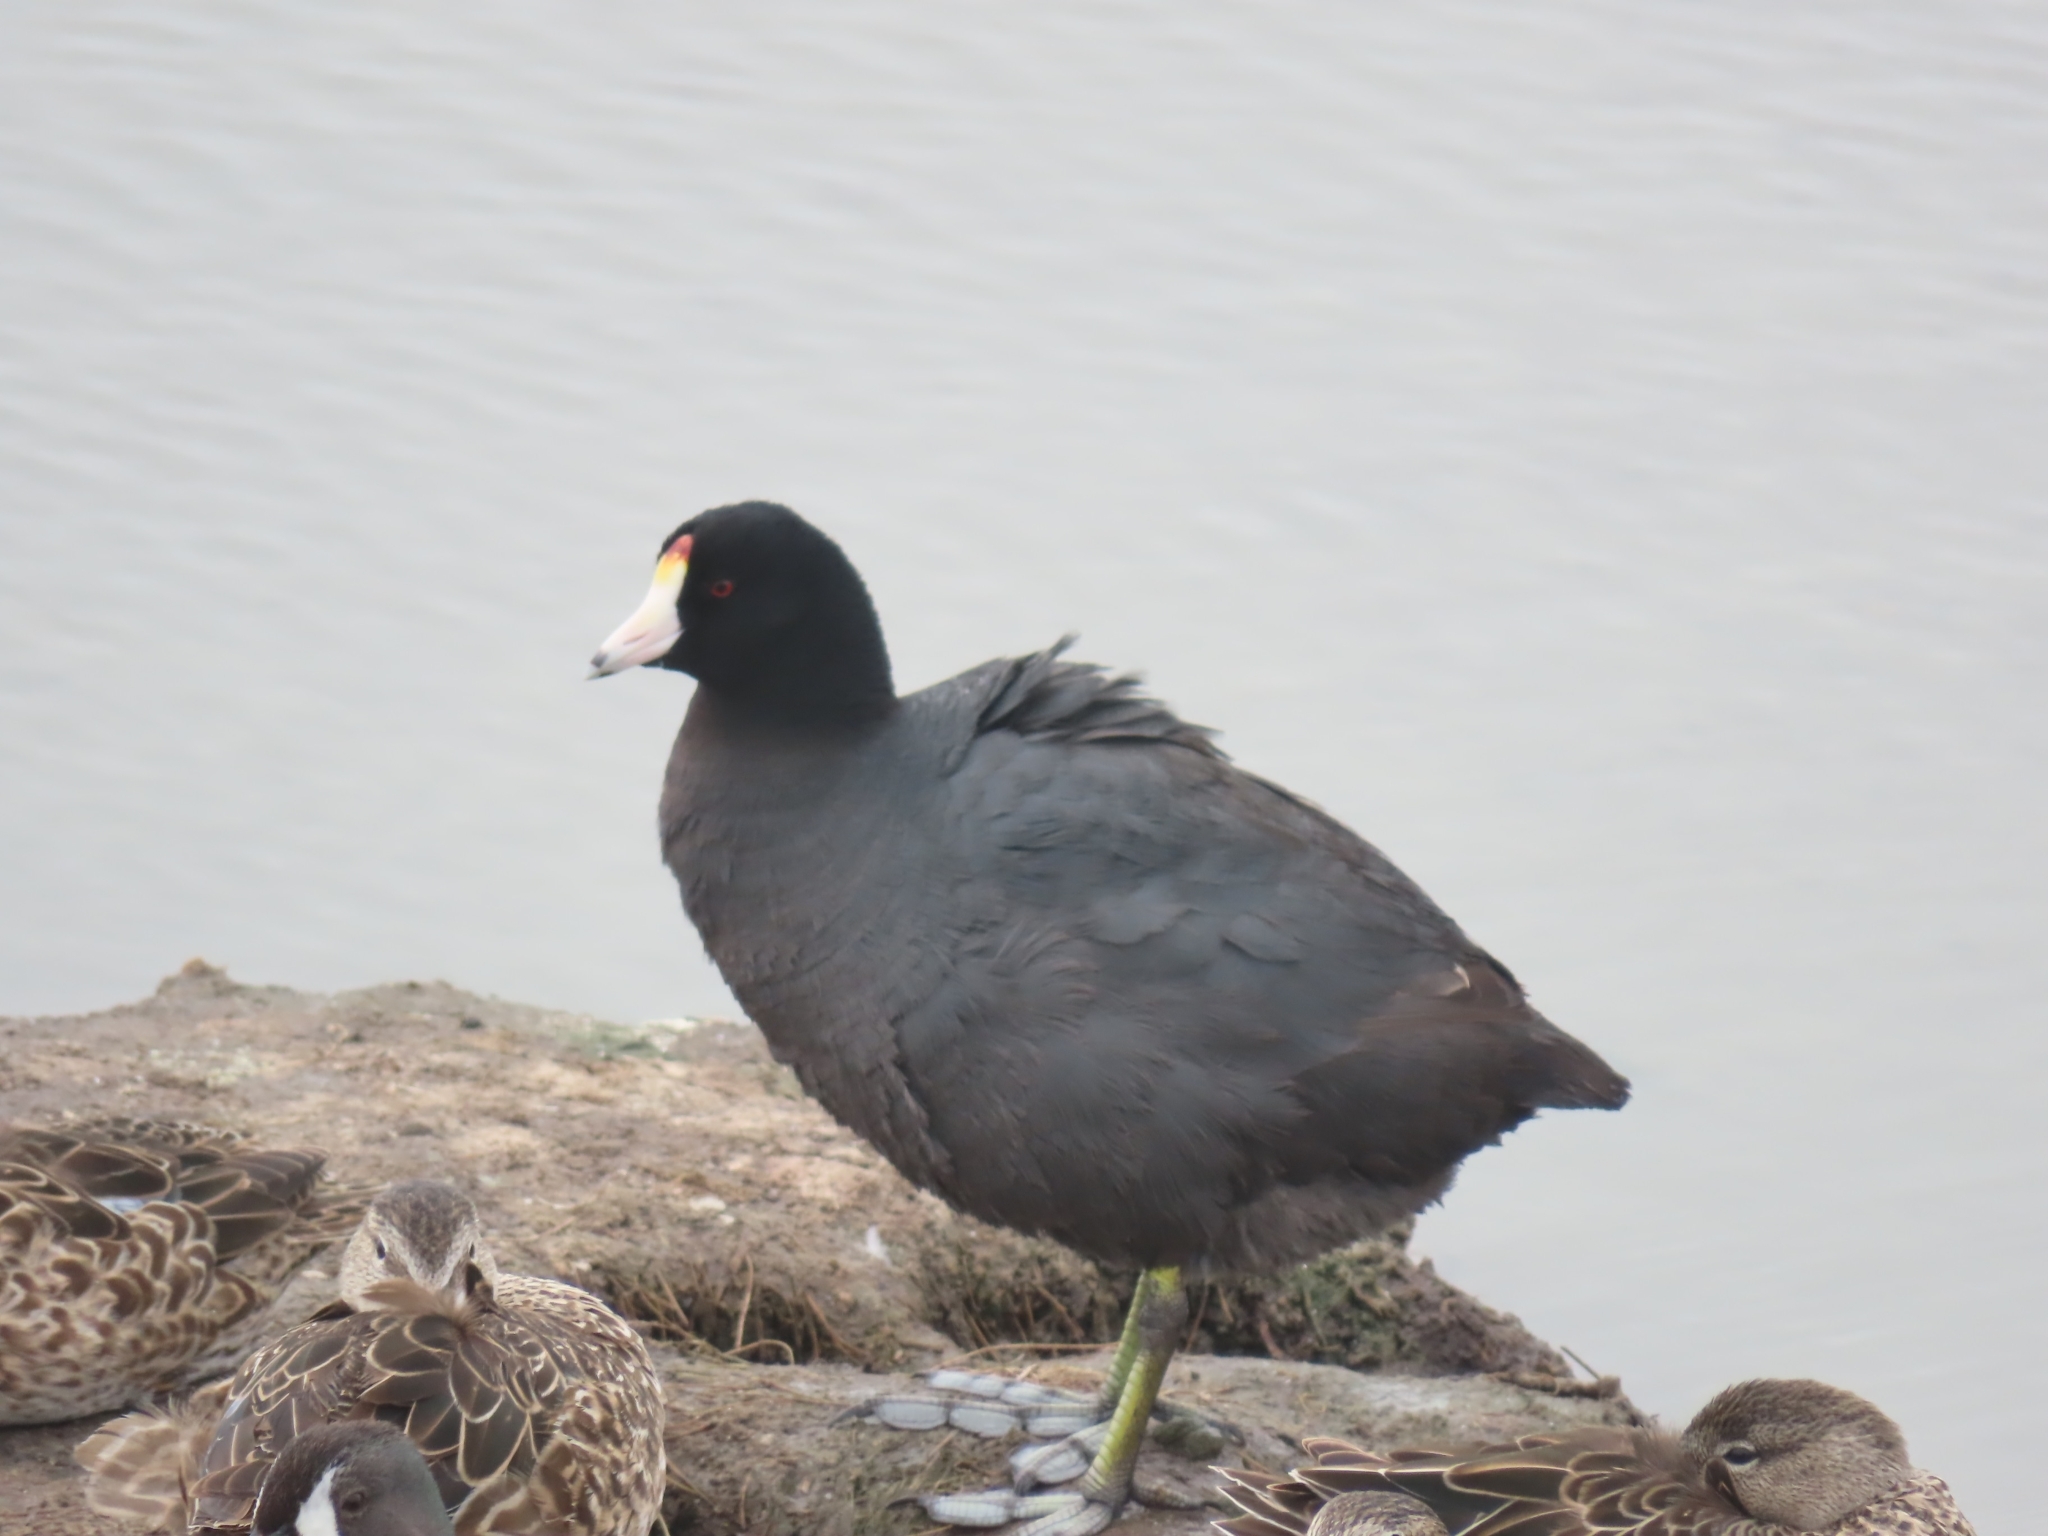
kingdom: Animalia
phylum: Chordata
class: Aves
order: Gruiformes
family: Rallidae
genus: Fulica
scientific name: Fulica americana
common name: American coot
